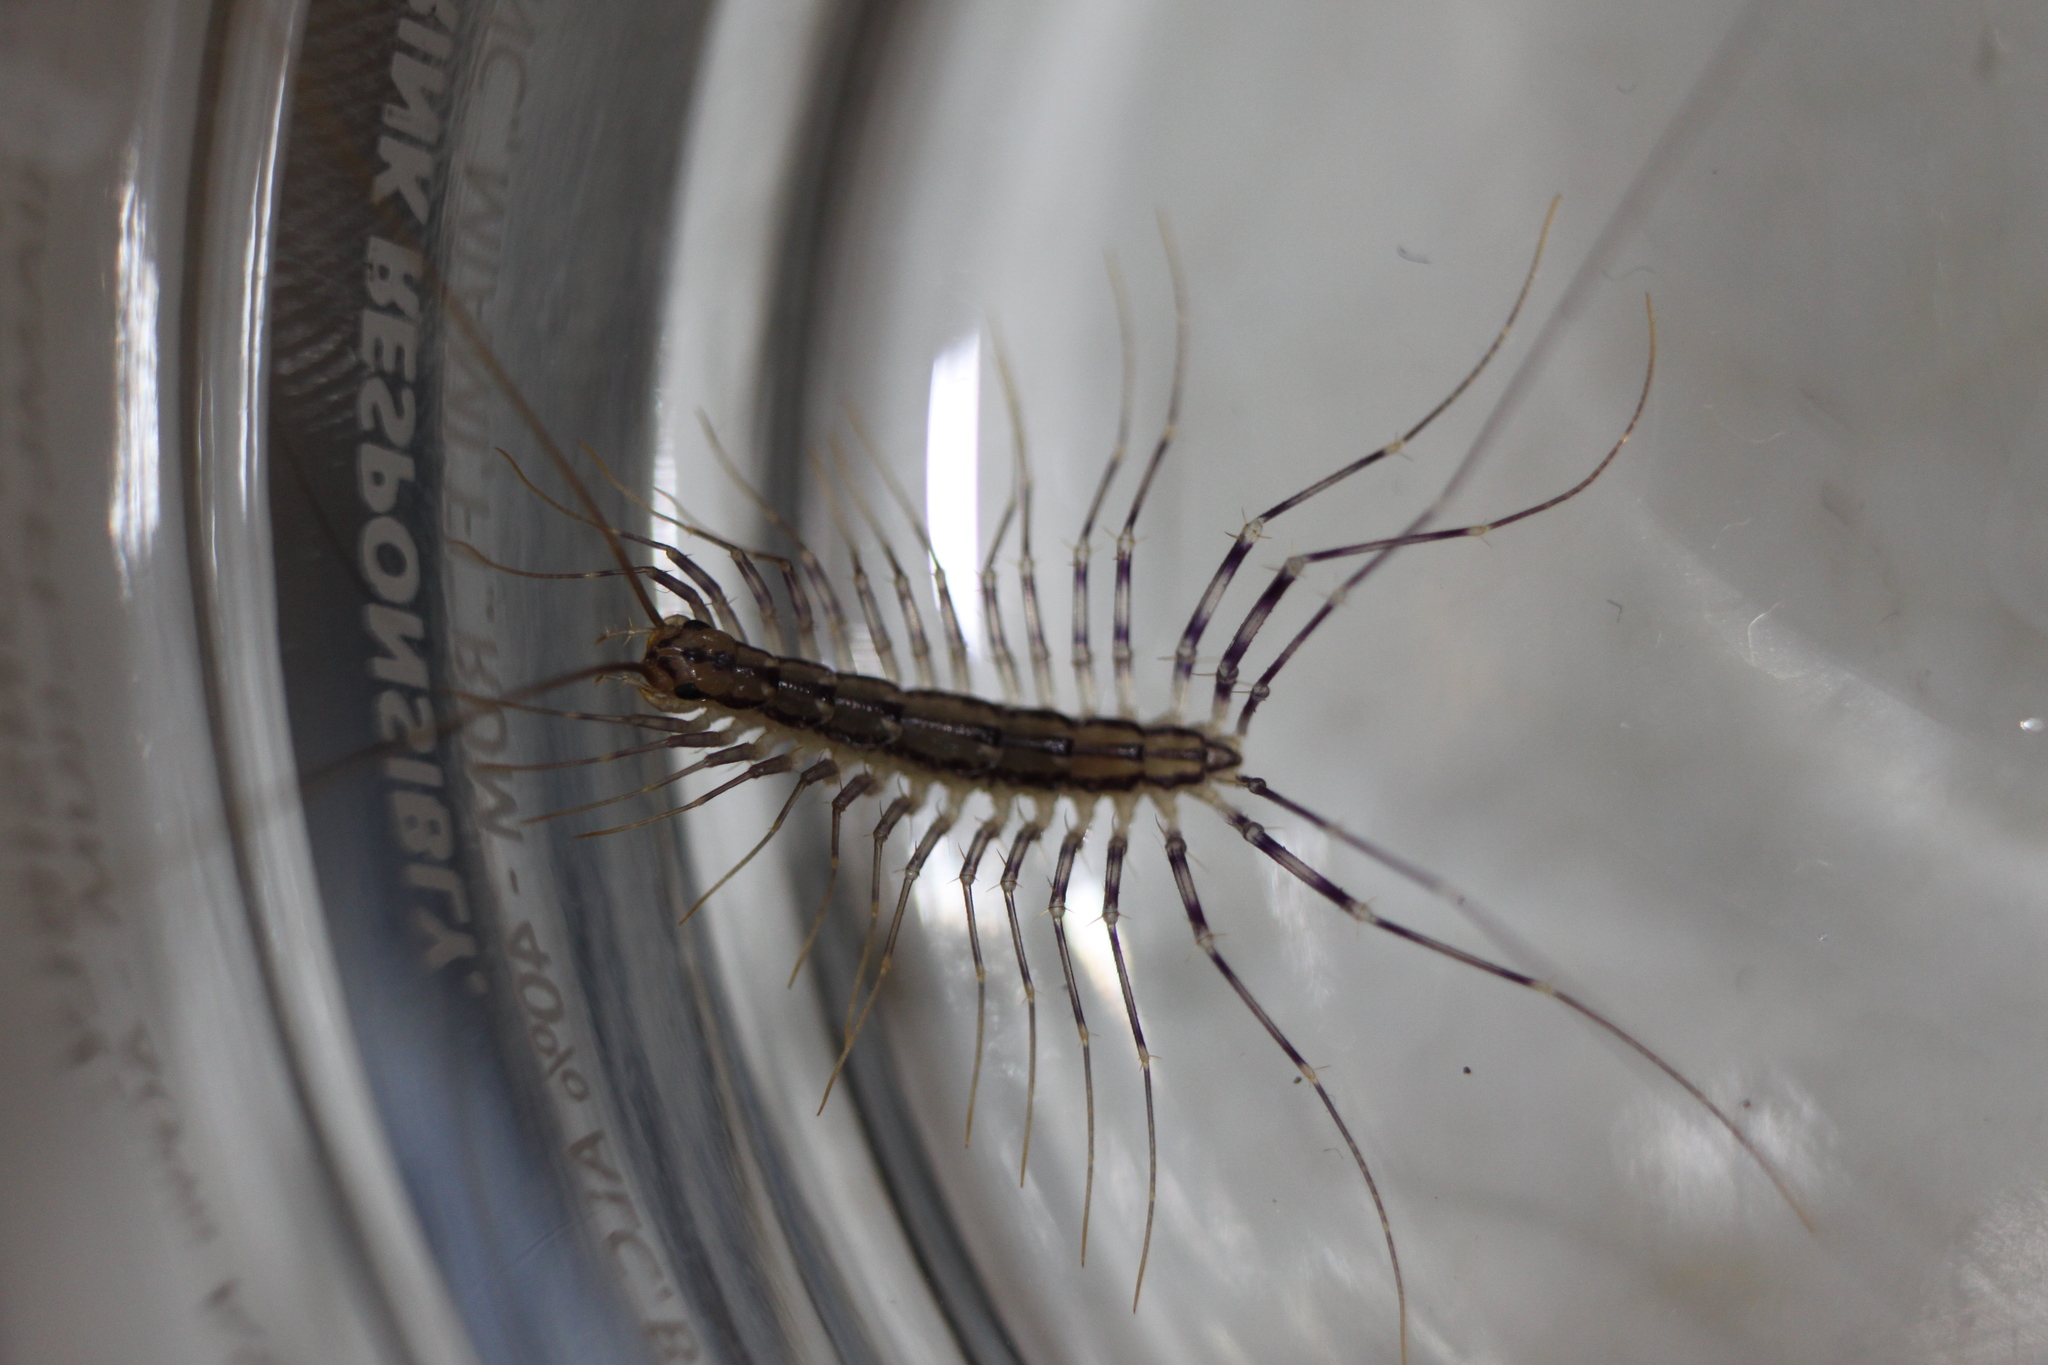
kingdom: Animalia
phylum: Arthropoda
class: Chilopoda
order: Scutigeromorpha
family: Scutigeridae
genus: Scutigera
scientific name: Scutigera coleoptrata
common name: House centipede
